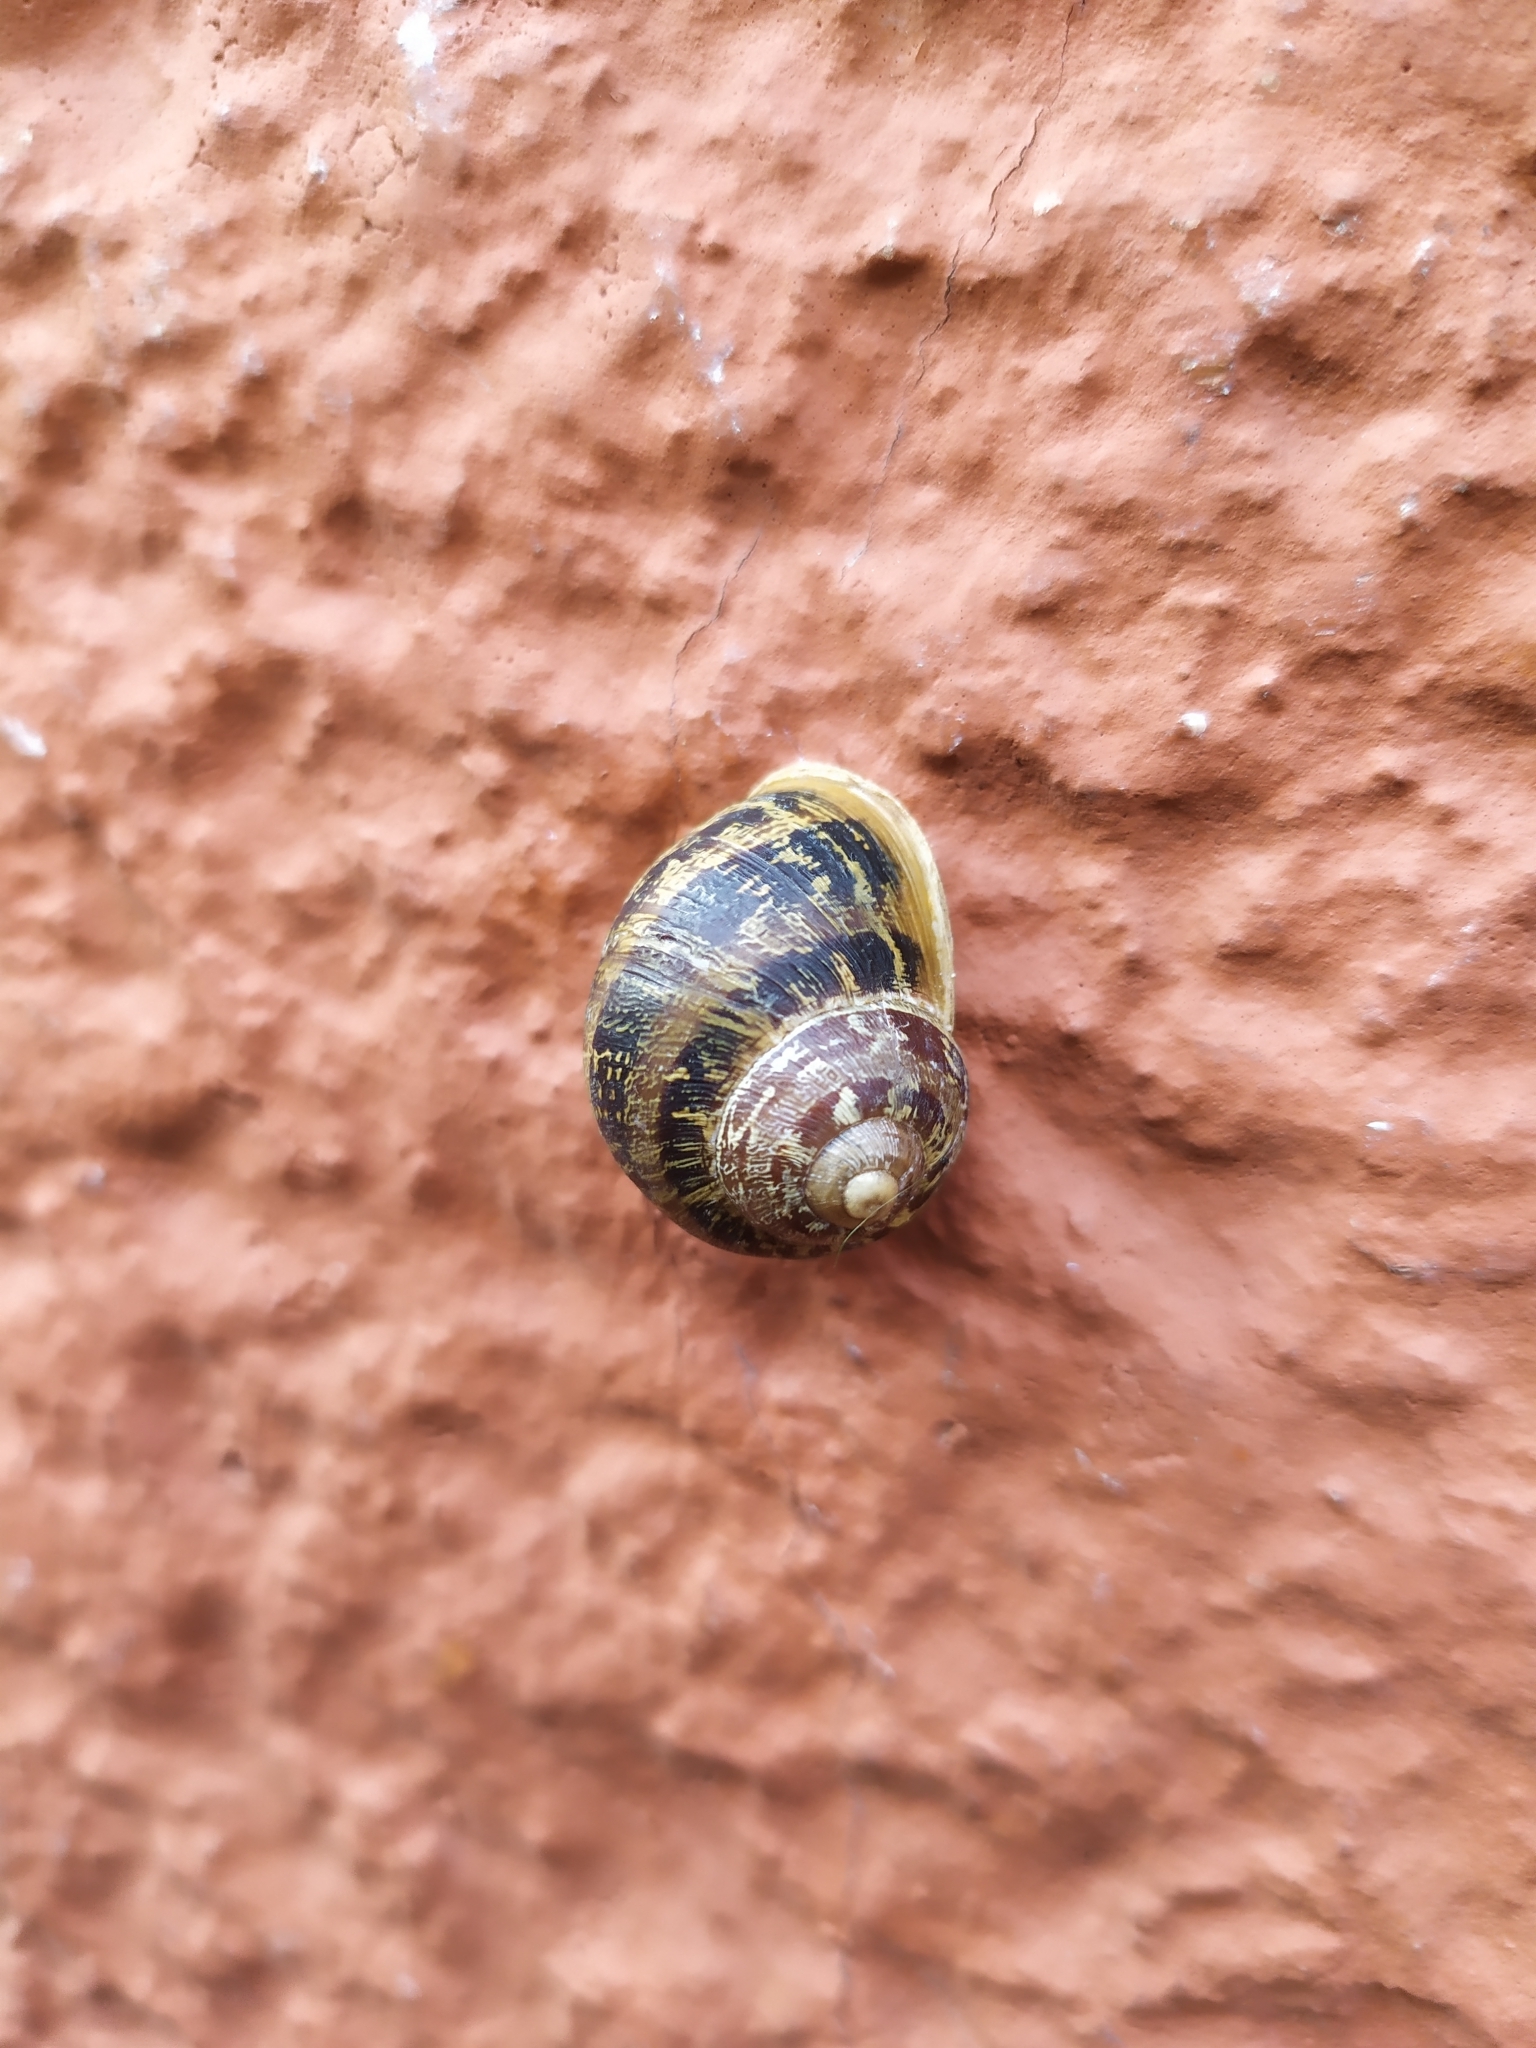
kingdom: Animalia
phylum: Mollusca
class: Gastropoda
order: Stylommatophora
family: Helicidae
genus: Cornu
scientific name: Cornu aspersum
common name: Brown garden snail
